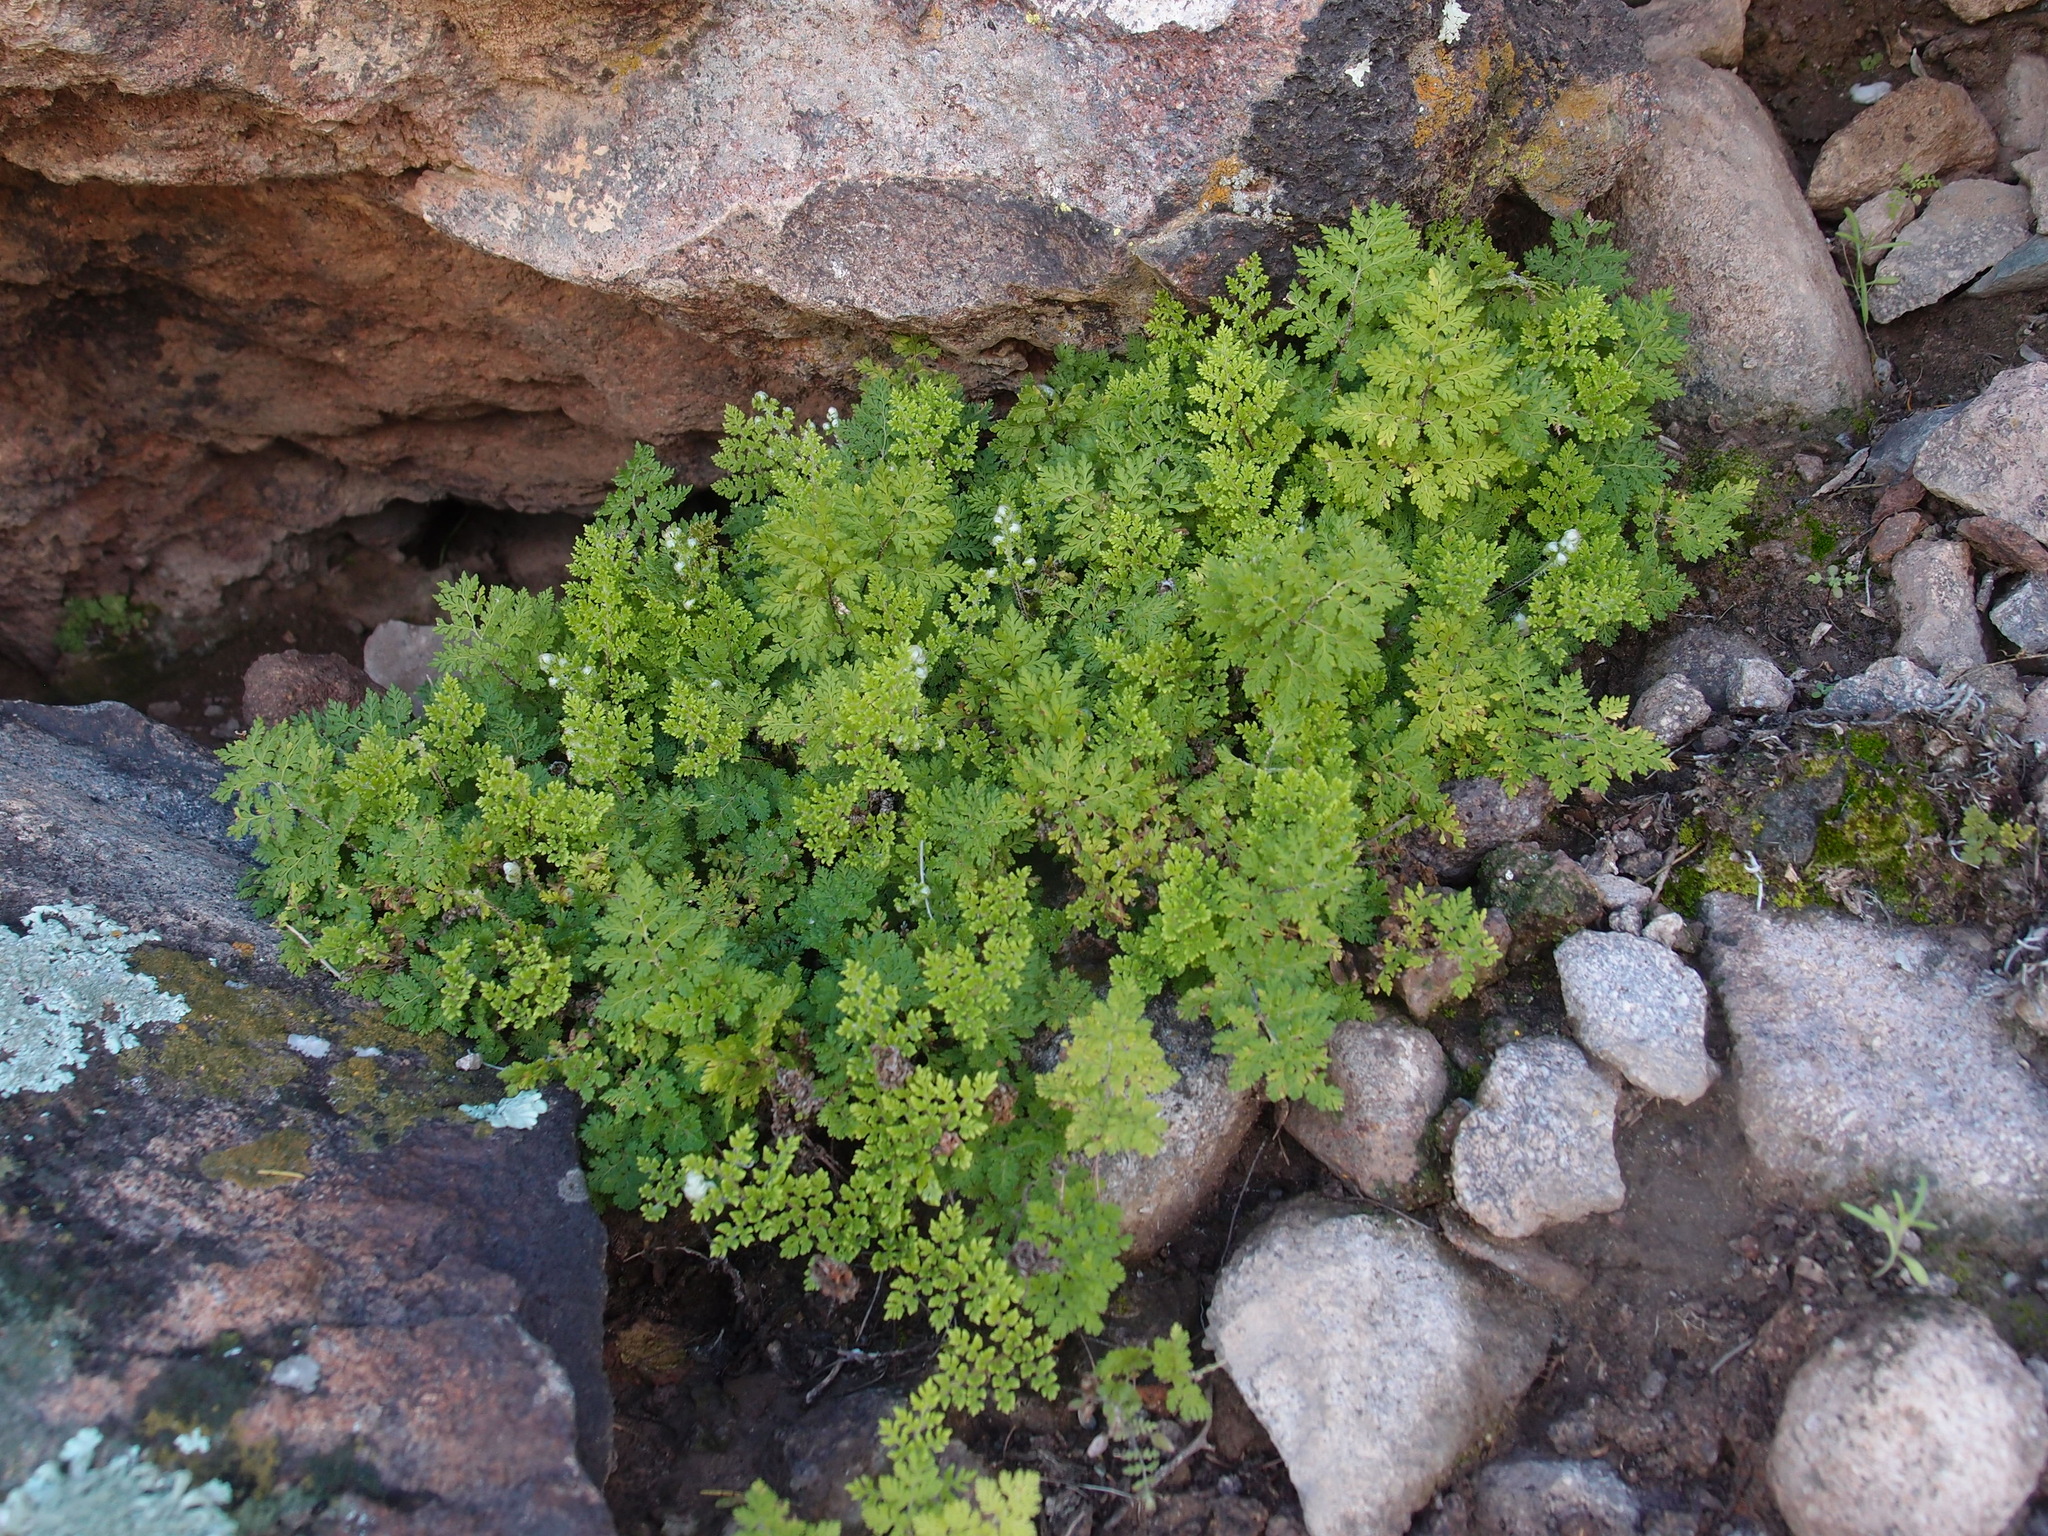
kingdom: Plantae
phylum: Tracheophyta
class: Polypodiopsida
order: Polypodiales
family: Pteridaceae
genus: Myriopteris
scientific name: Myriopteris pringlei
